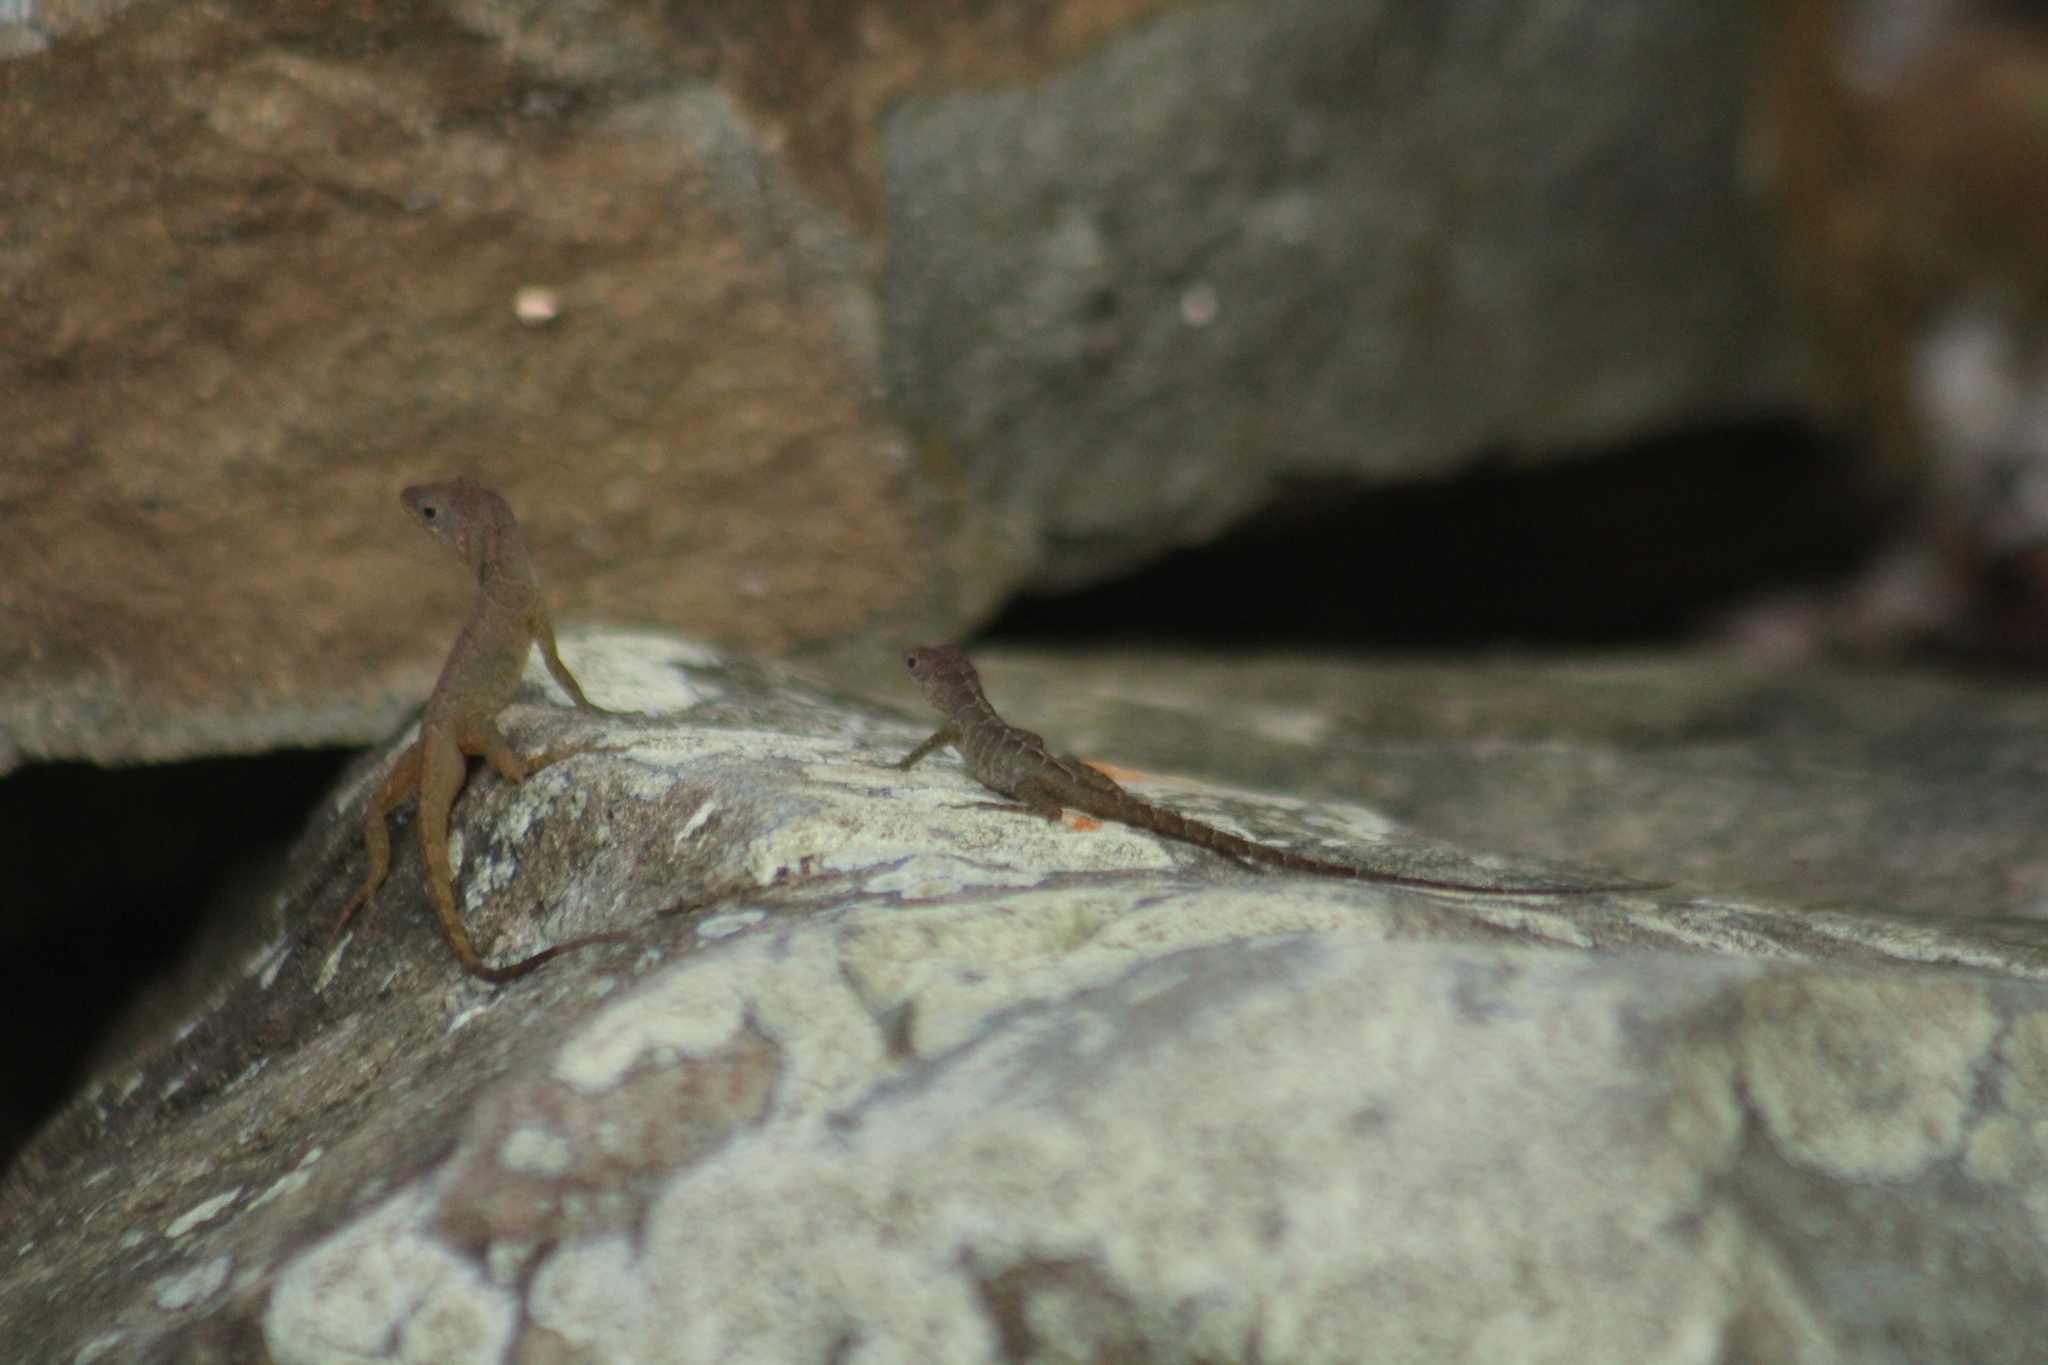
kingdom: Animalia
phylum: Chordata
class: Squamata
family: Dactyloidae
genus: Anolis
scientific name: Anolis pogus
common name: Anguilla bank bush anole
